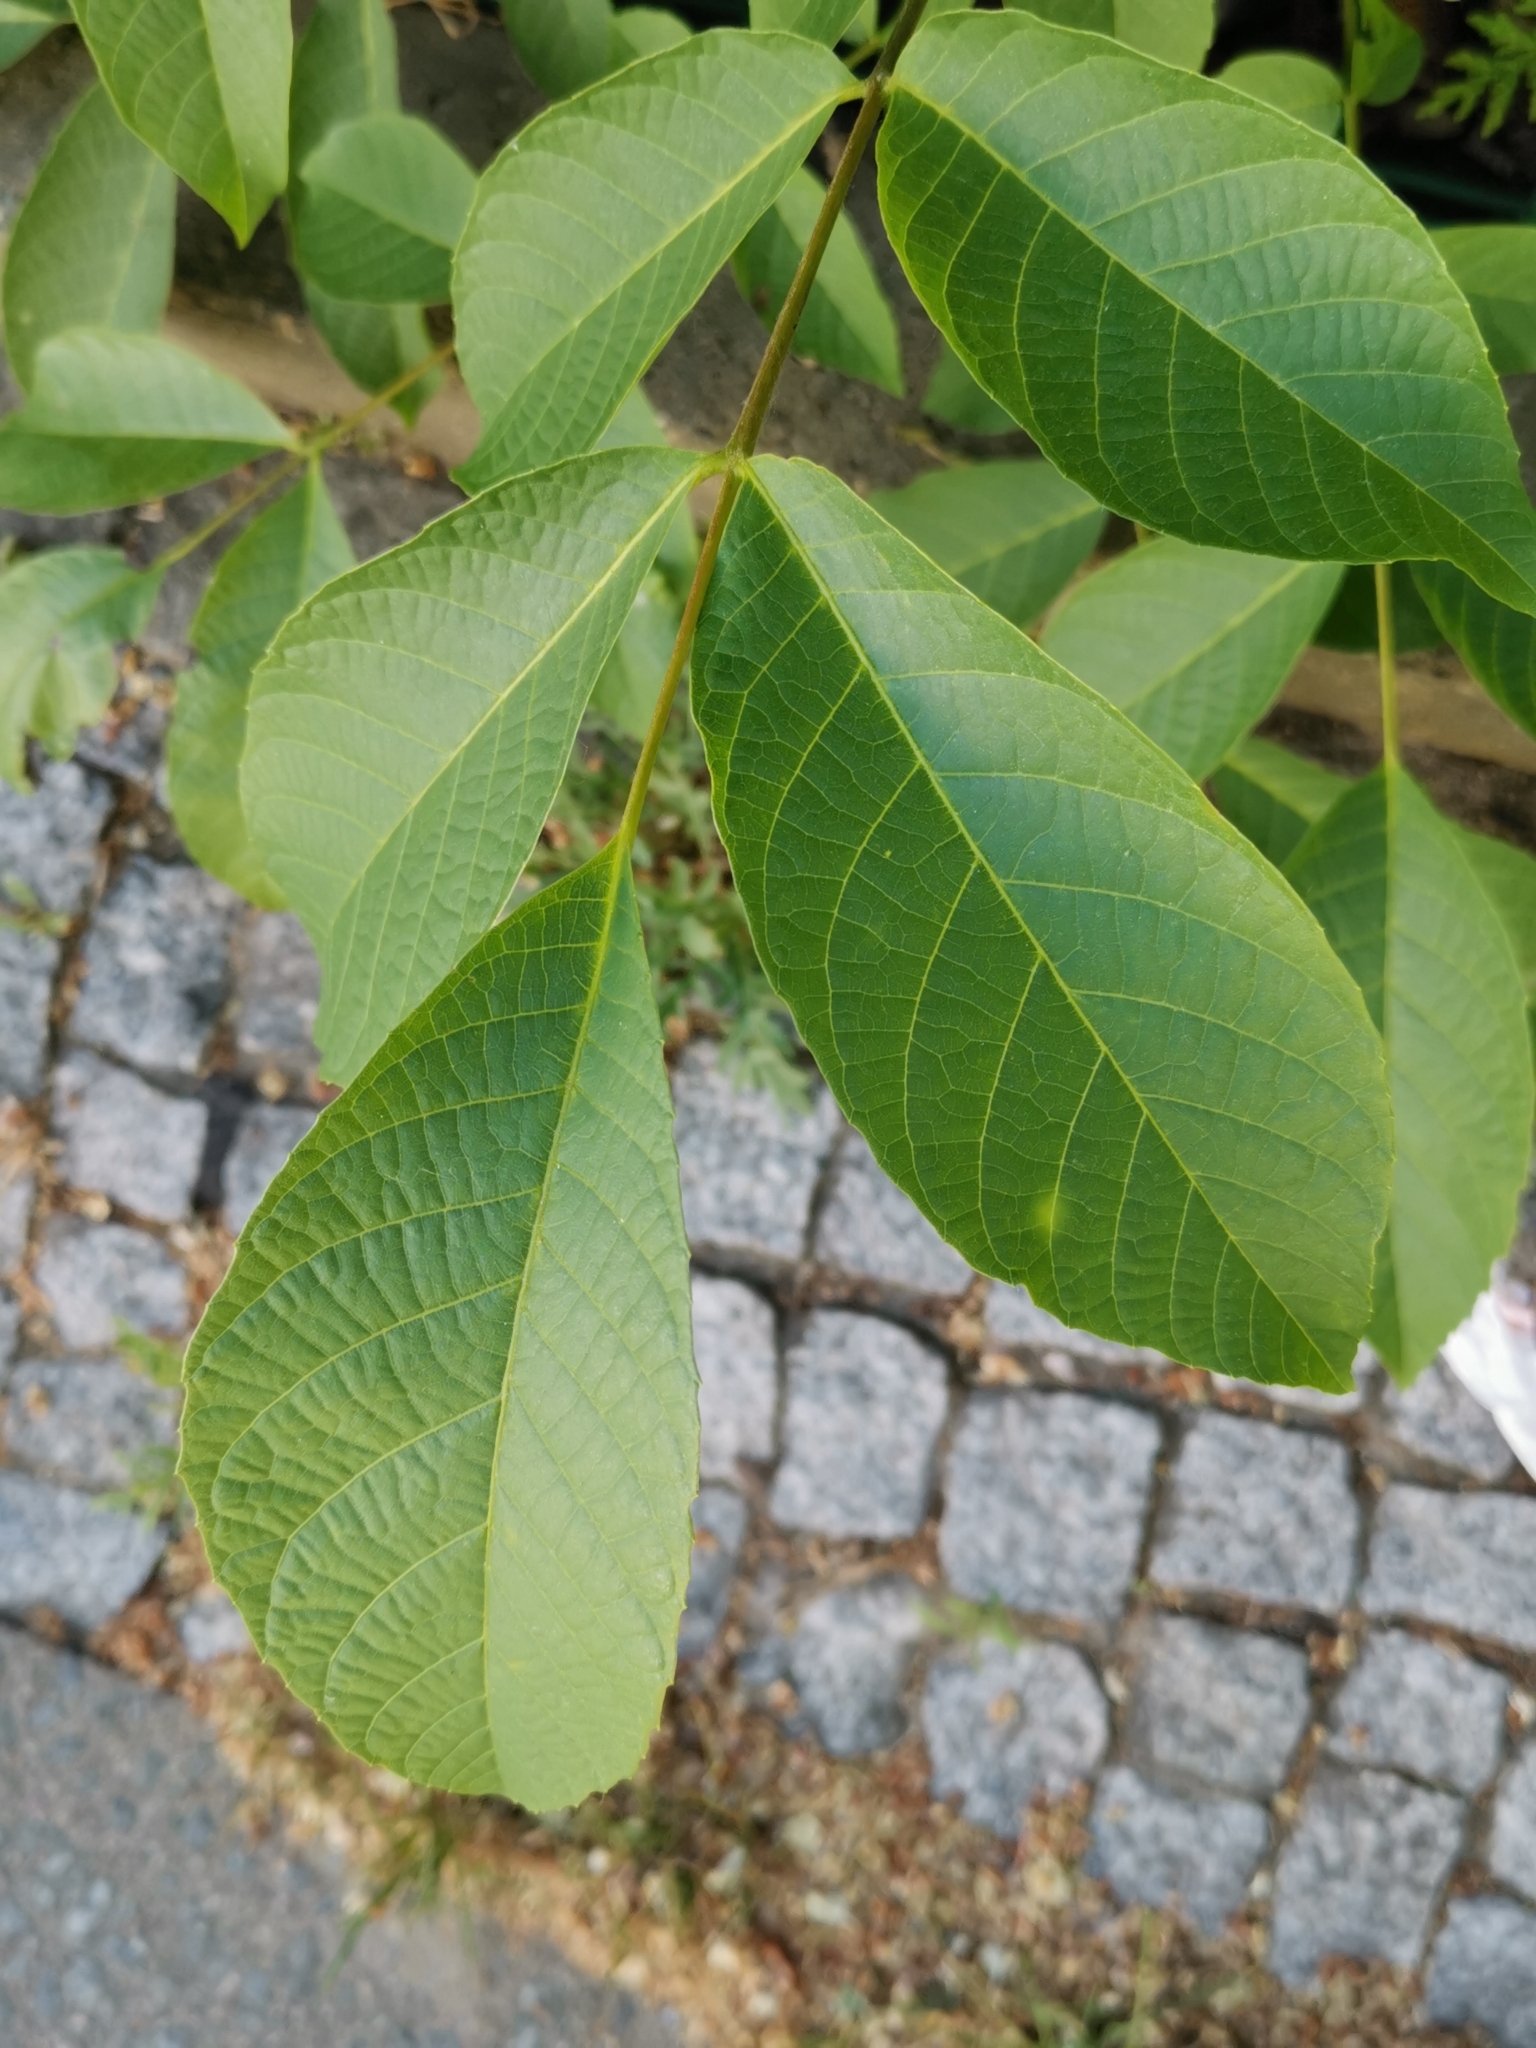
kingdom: Plantae
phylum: Tracheophyta
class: Magnoliopsida
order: Fagales
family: Juglandaceae
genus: Juglans
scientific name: Juglans regia
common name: Walnut
